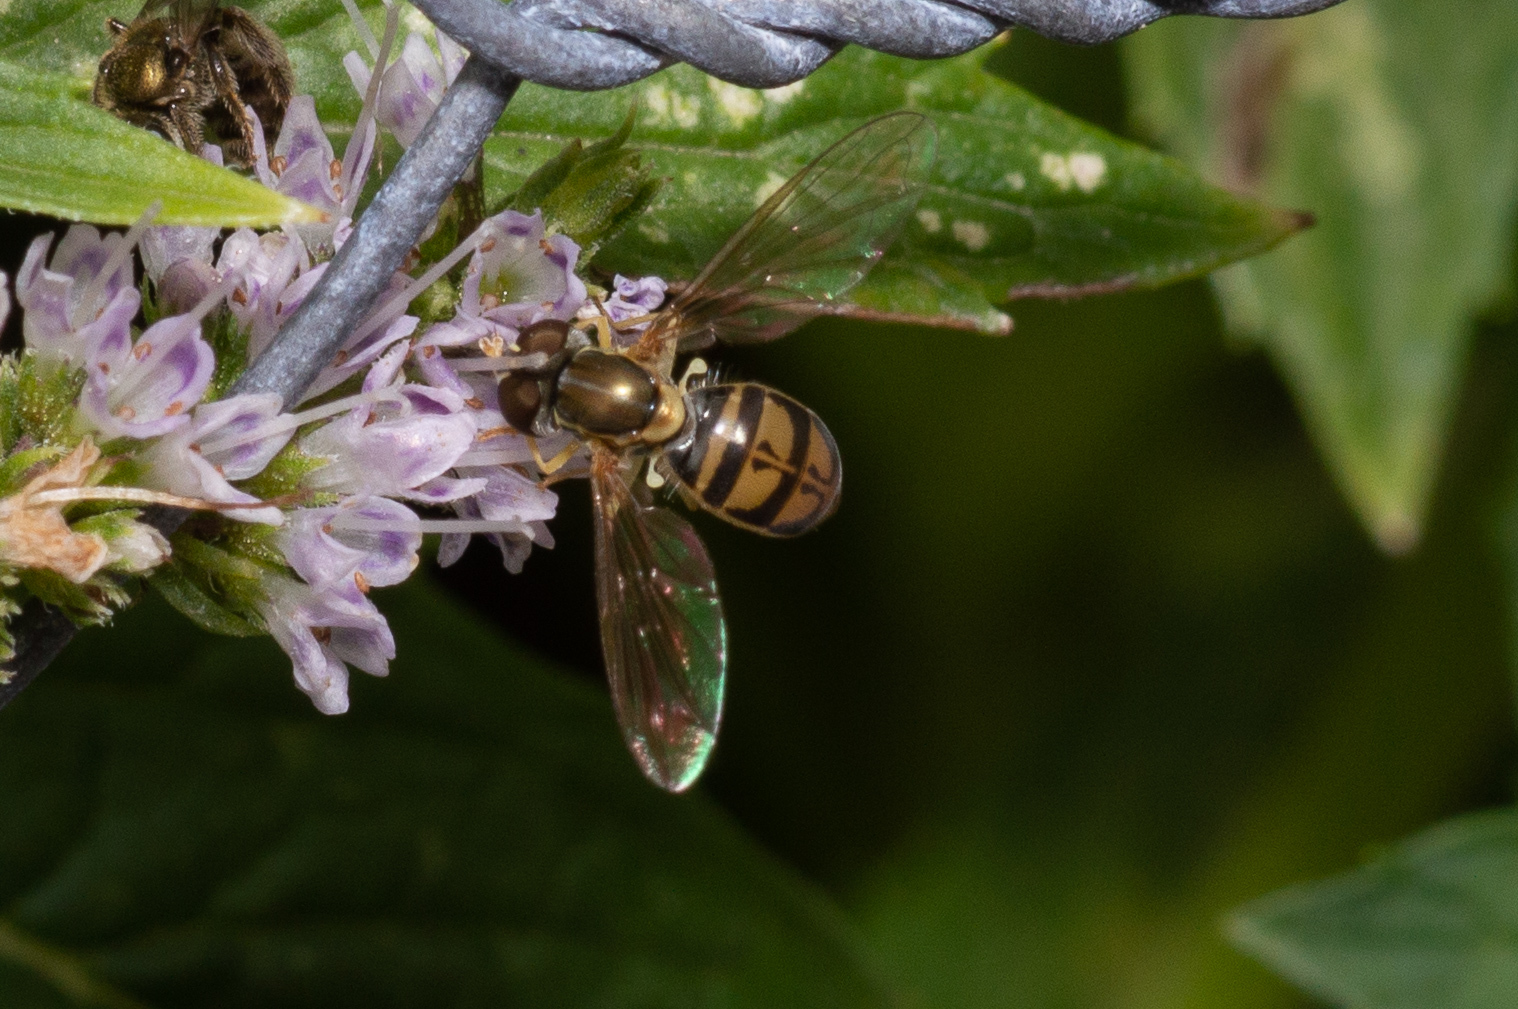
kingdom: Animalia
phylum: Arthropoda
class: Insecta
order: Diptera
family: Syrphidae
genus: Toxomerus
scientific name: Toxomerus marginatus
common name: Syrphid fly
